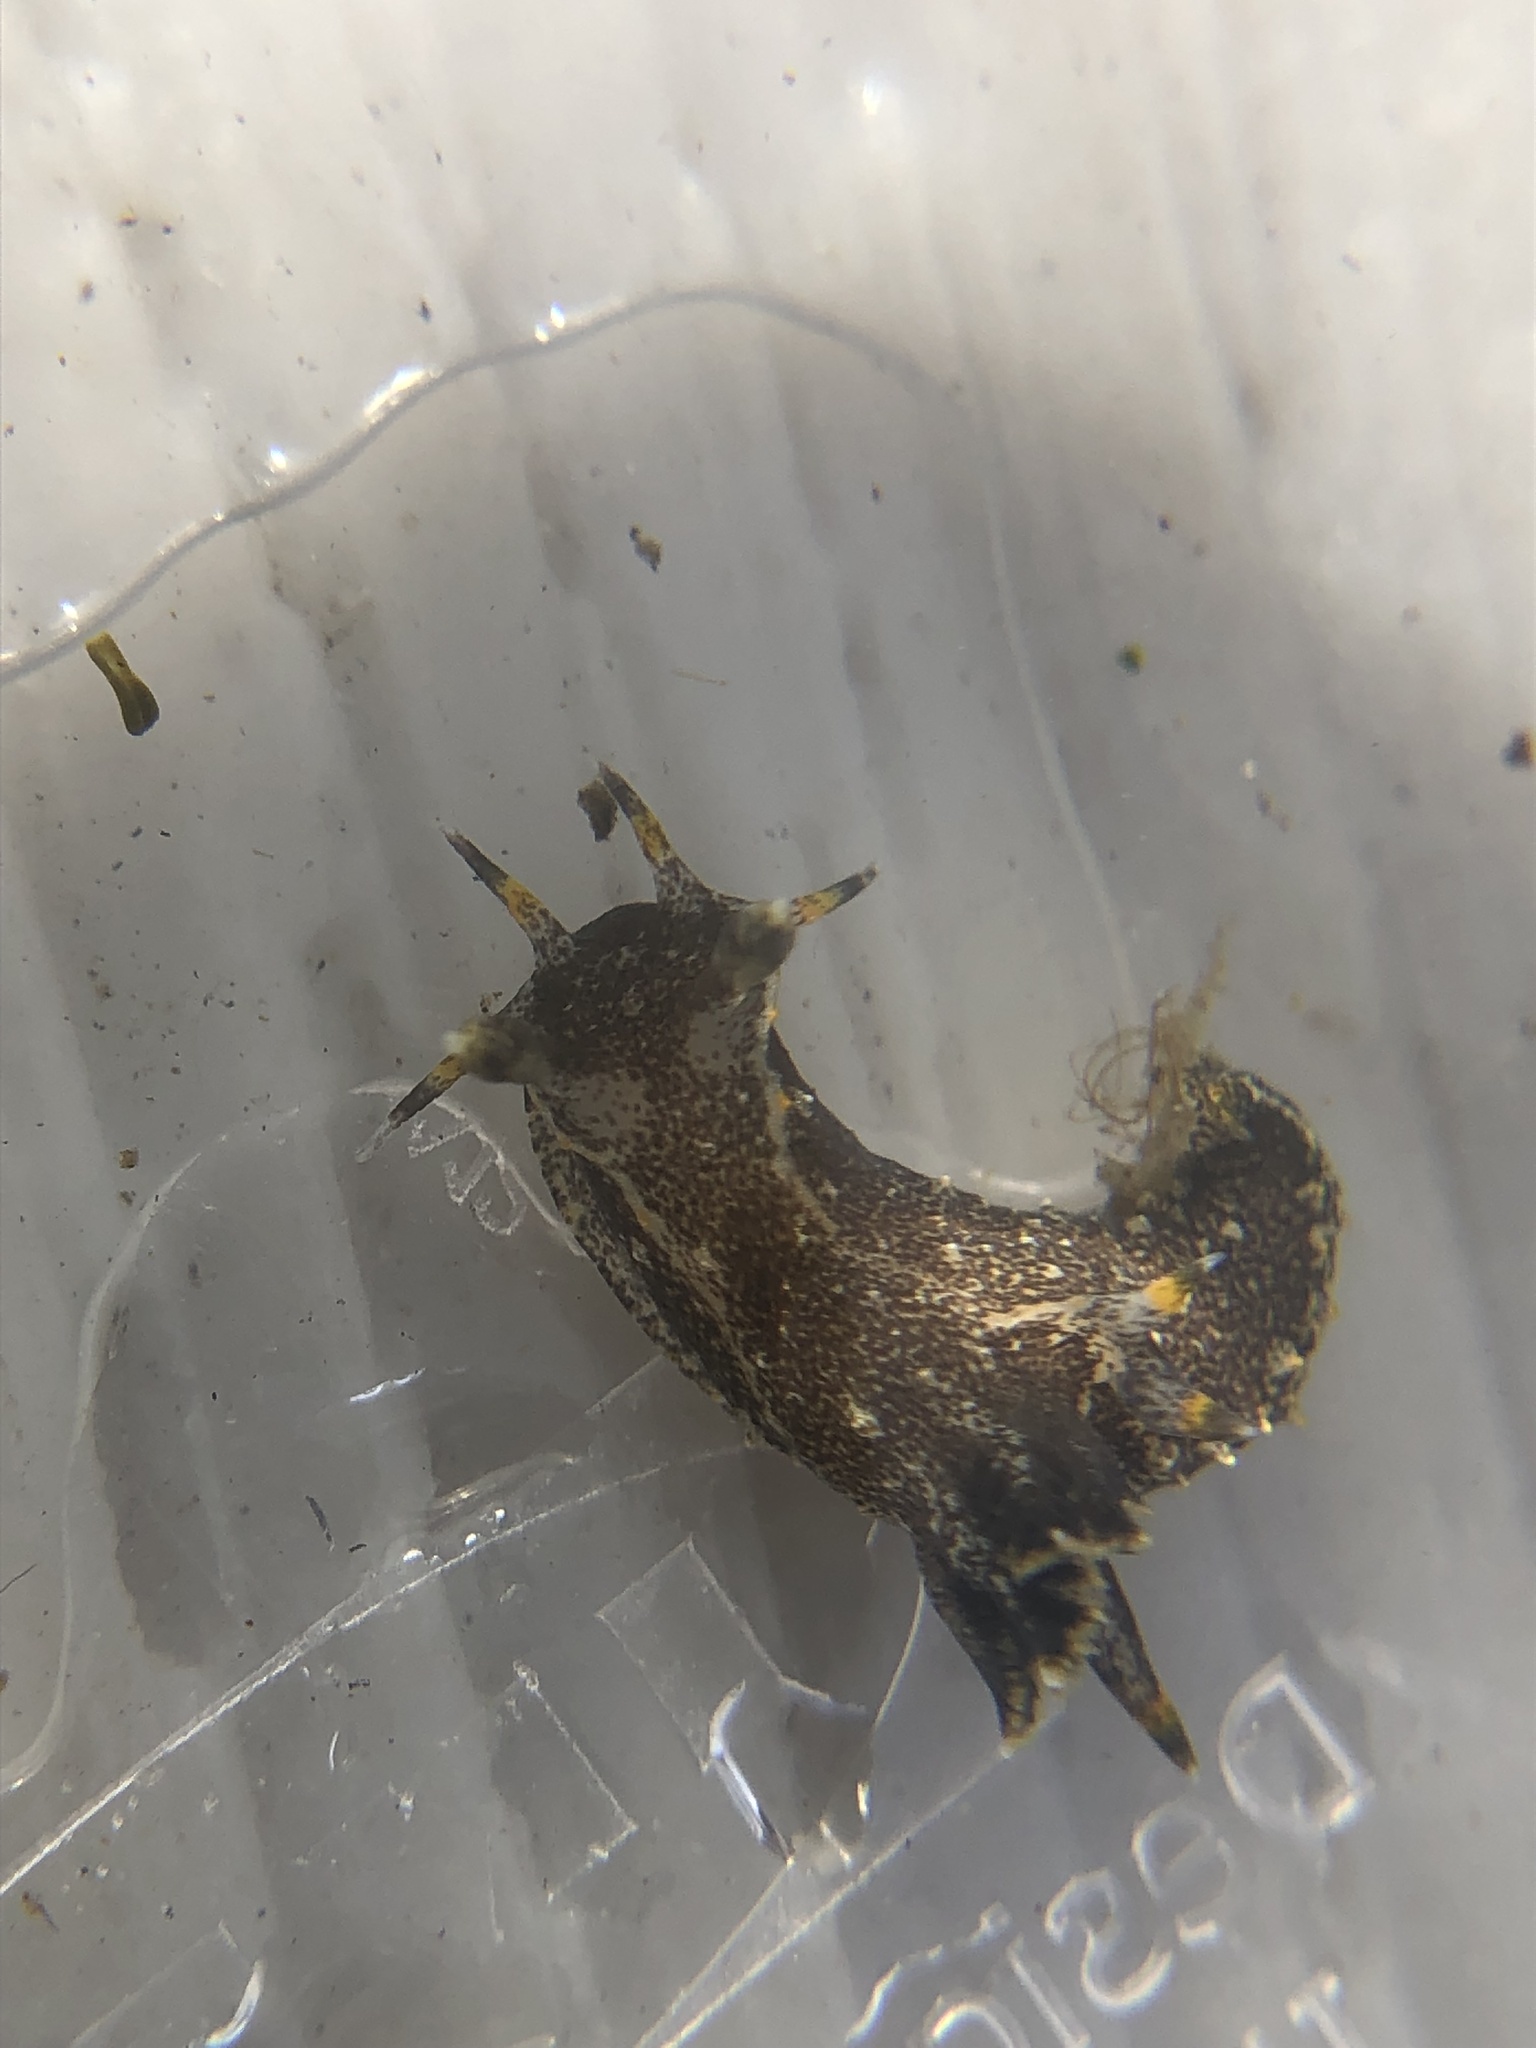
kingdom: Animalia
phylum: Mollusca
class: Gastropoda
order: Nudibranchia
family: Polyceridae
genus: Polycera
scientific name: Polycera hedgpethi
